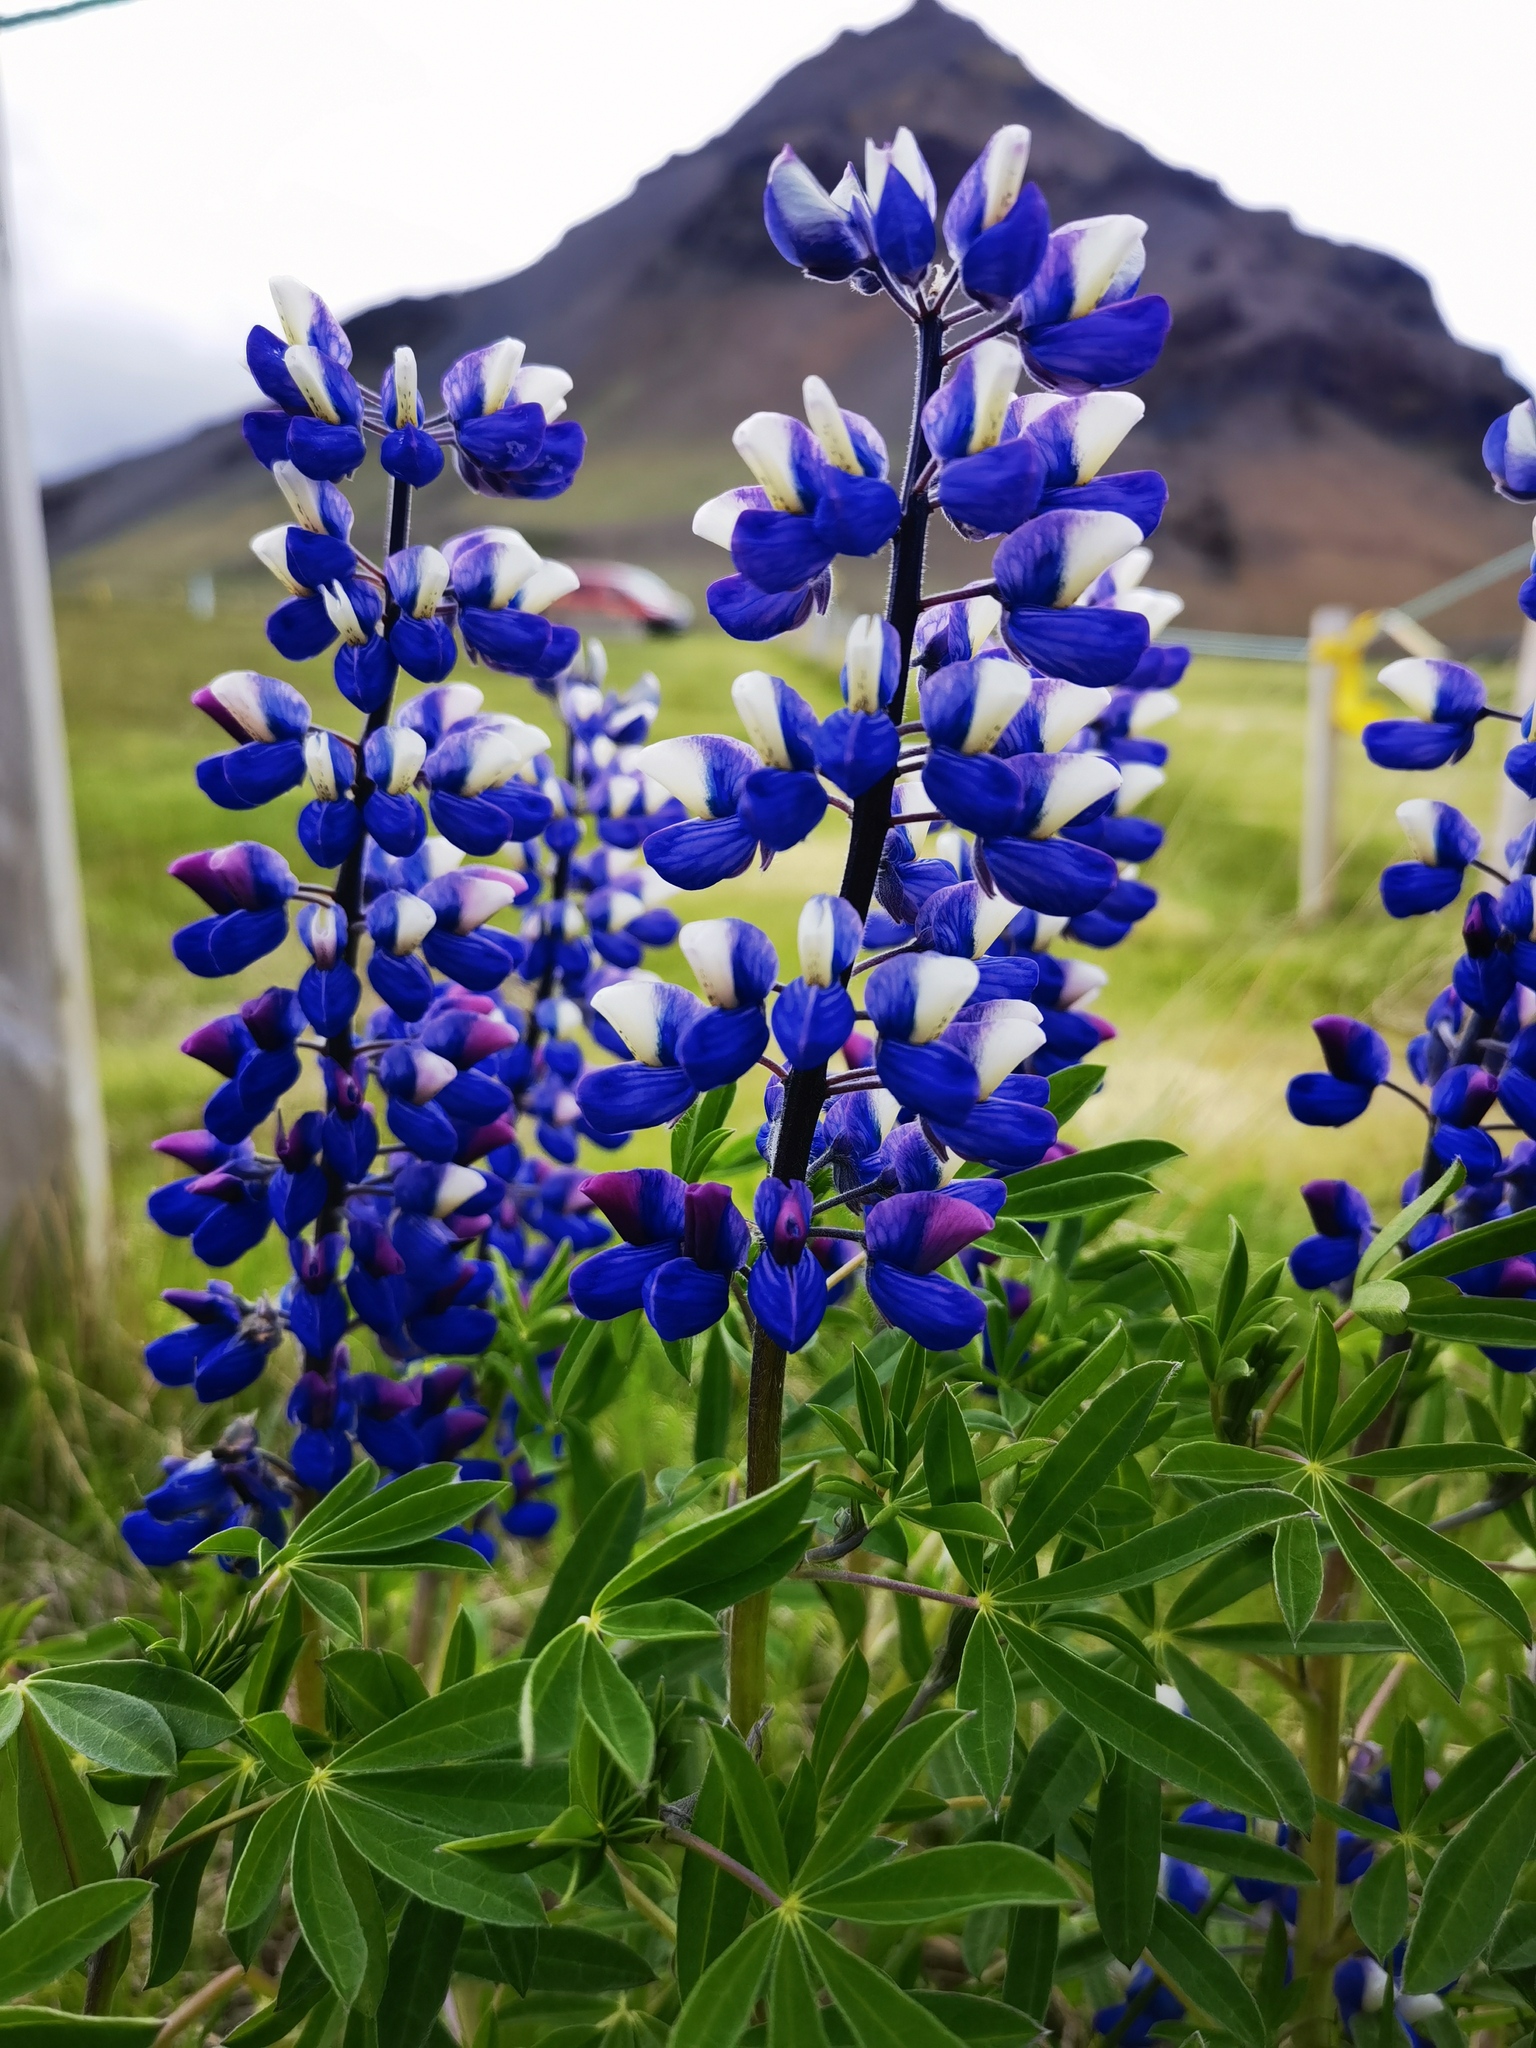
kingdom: Plantae
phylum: Tracheophyta
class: Magnoliopsida
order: Fabales
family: Fabaceae
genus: Lupinus
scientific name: Lupinus nootkatensis
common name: Nootka lupine
